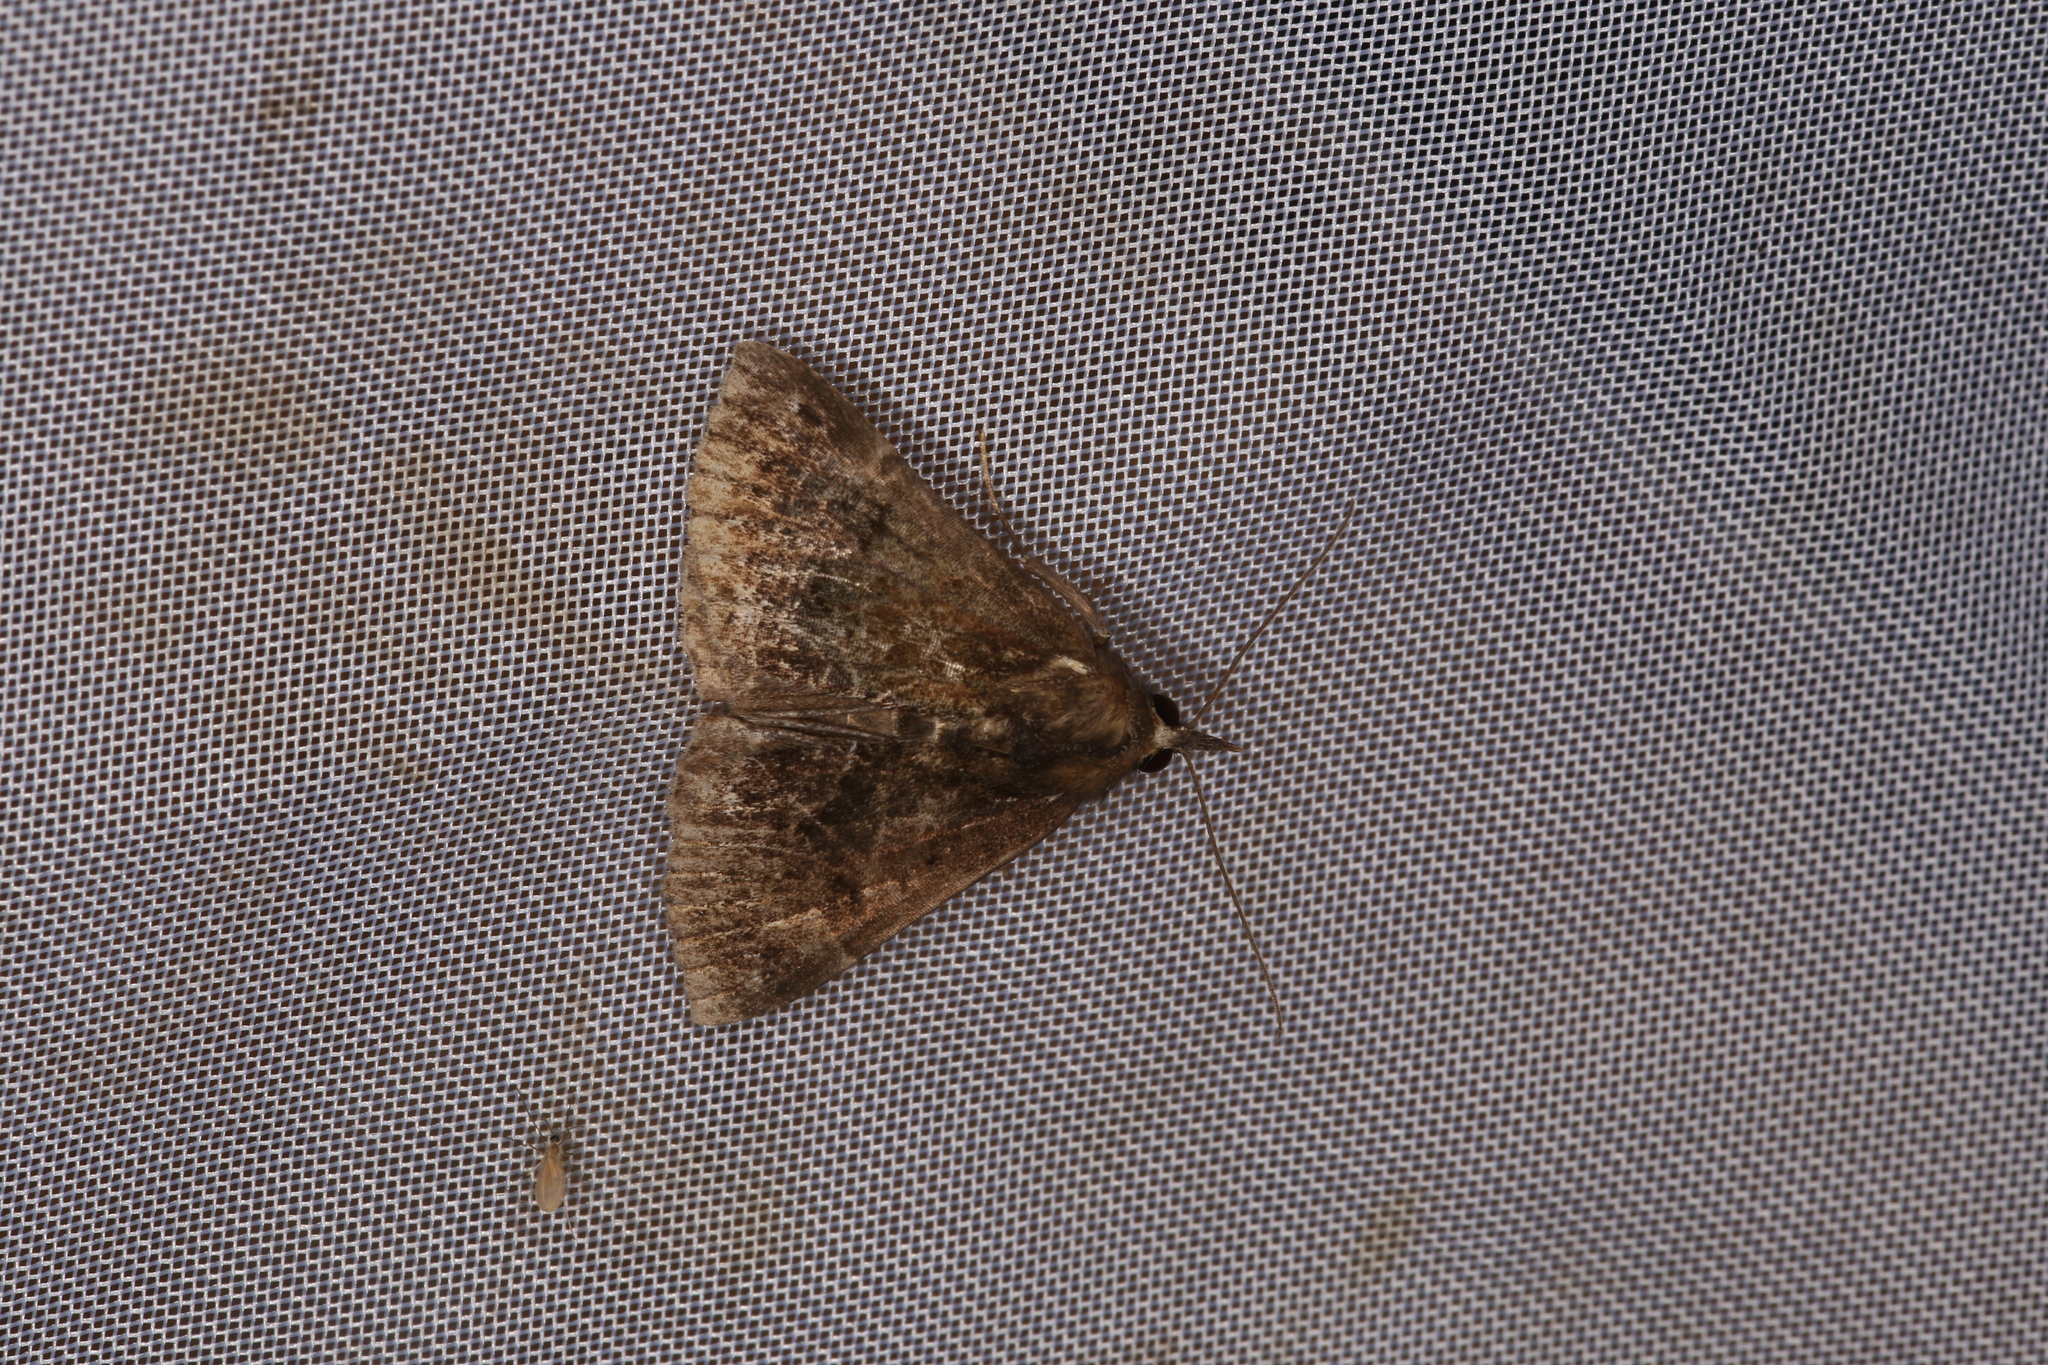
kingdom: Animalia
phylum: Arthropoda
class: Insecta
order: Lepidoptera
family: Erebidae
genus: Hypena
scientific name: Hypena crassalis
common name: Beautiful snout
